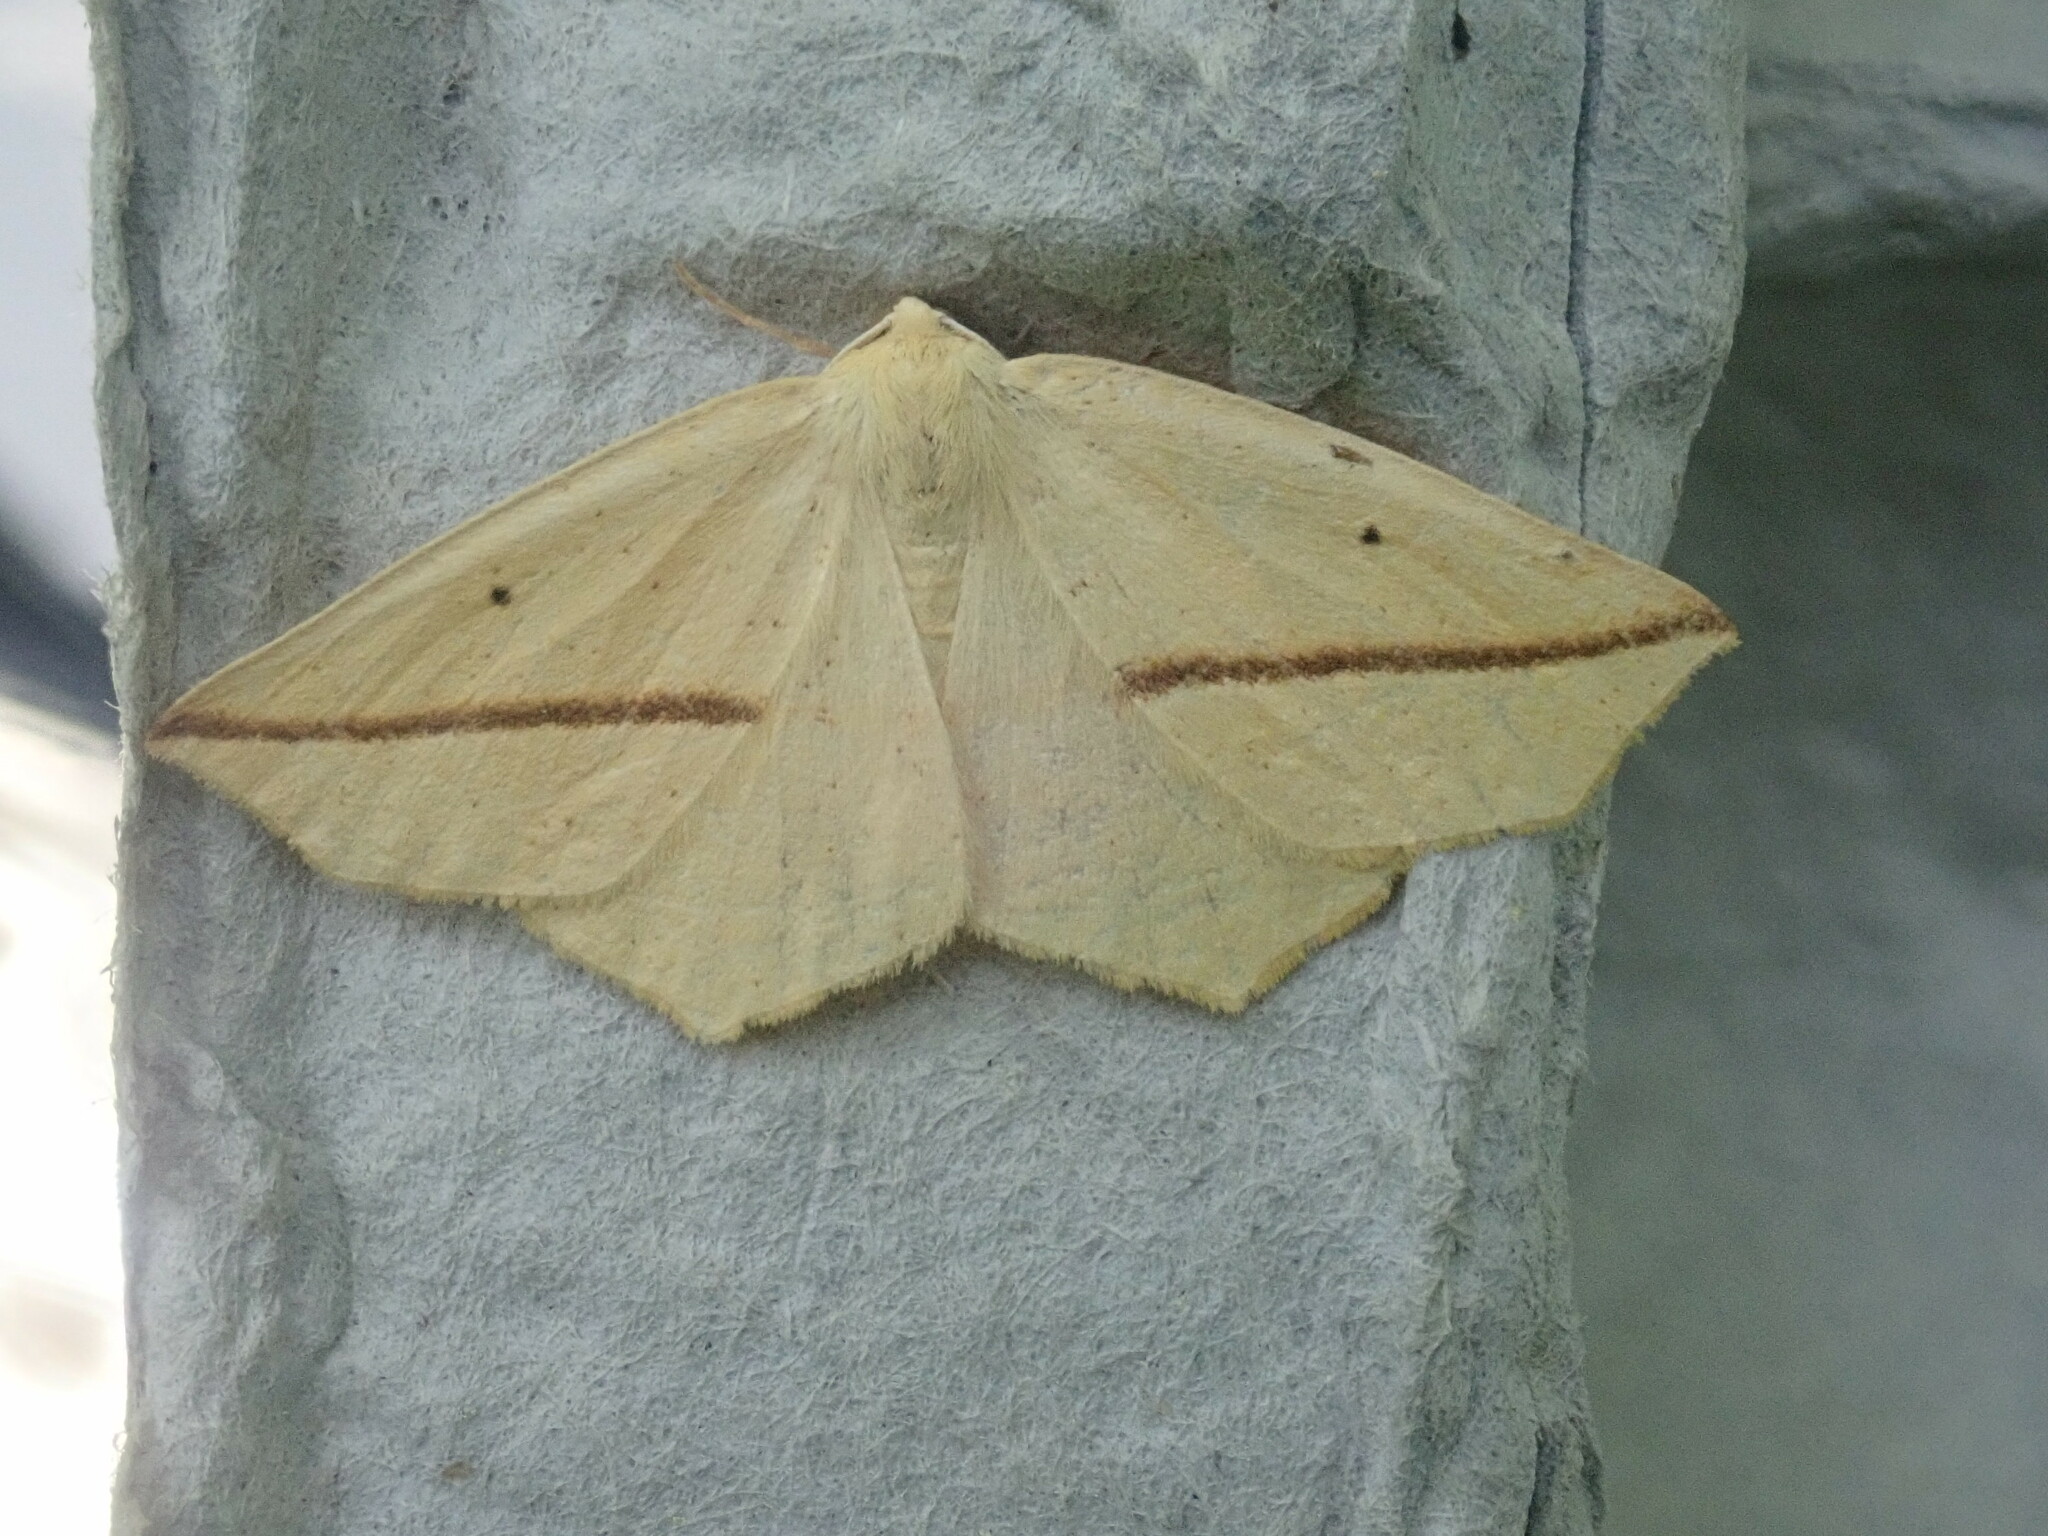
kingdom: Animalia
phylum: Arthropoda
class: Insecta
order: Lepidoptera
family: Geometridae
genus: Tetracis
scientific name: Tetracis crocallata
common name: Yellow slant-line
